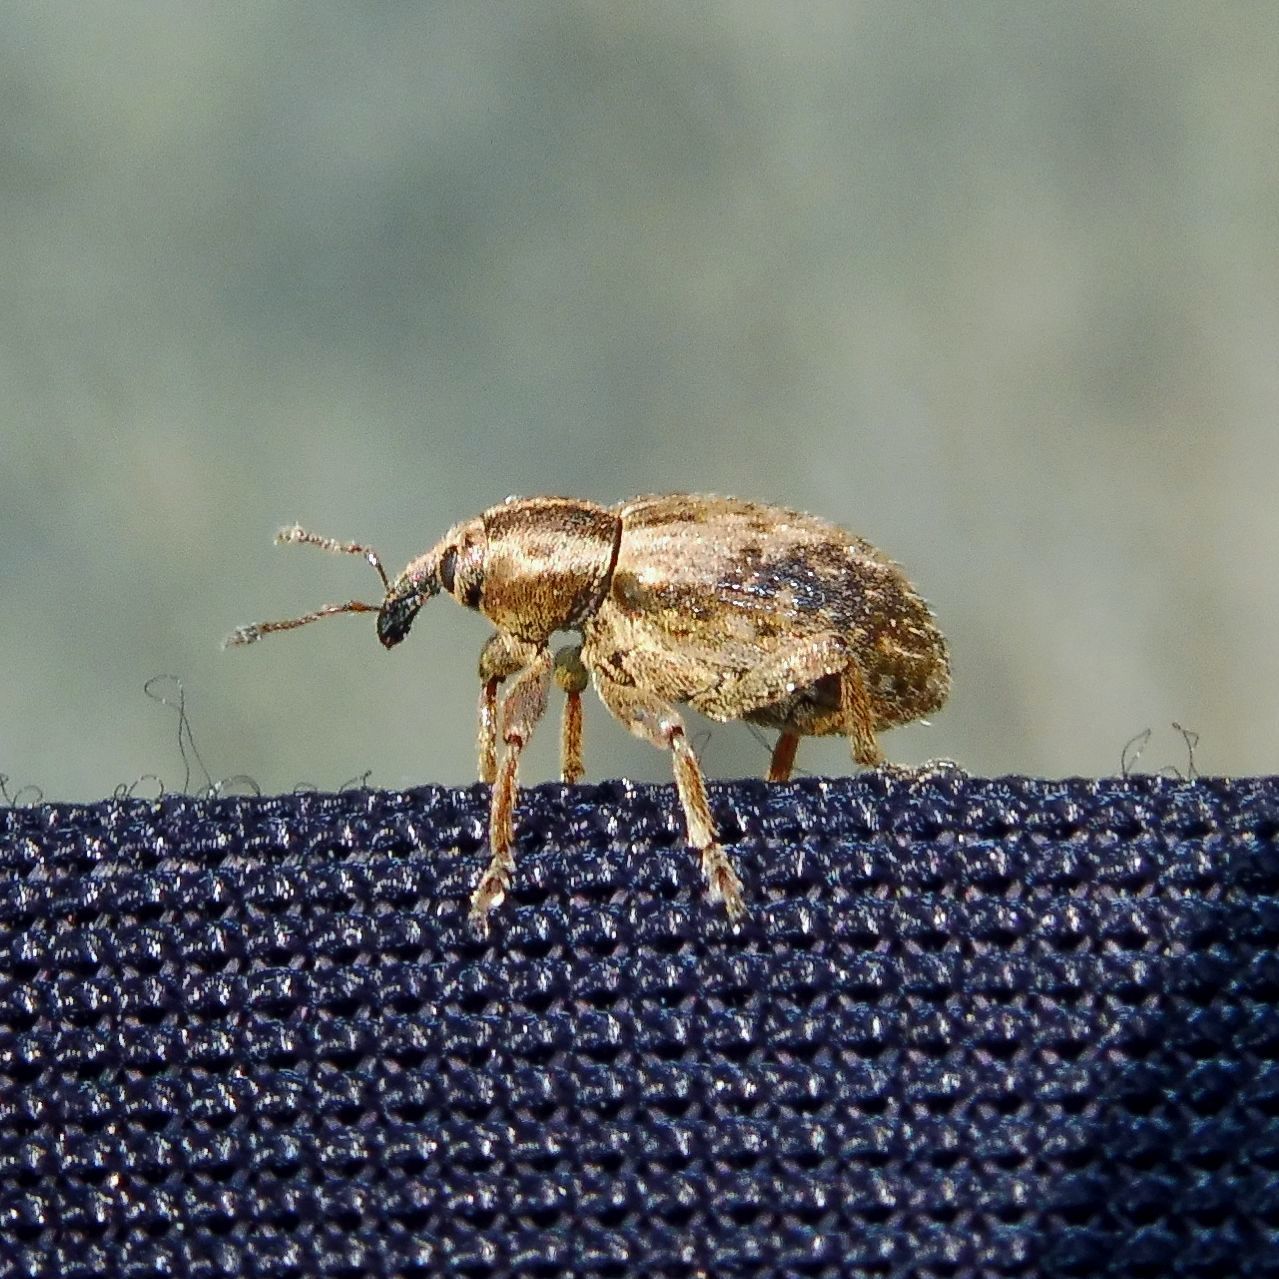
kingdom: Animalia
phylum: Arthropoda
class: Insecta
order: Coleoptera
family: Curculionidae
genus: Hypera
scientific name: Hypera plantaginis
